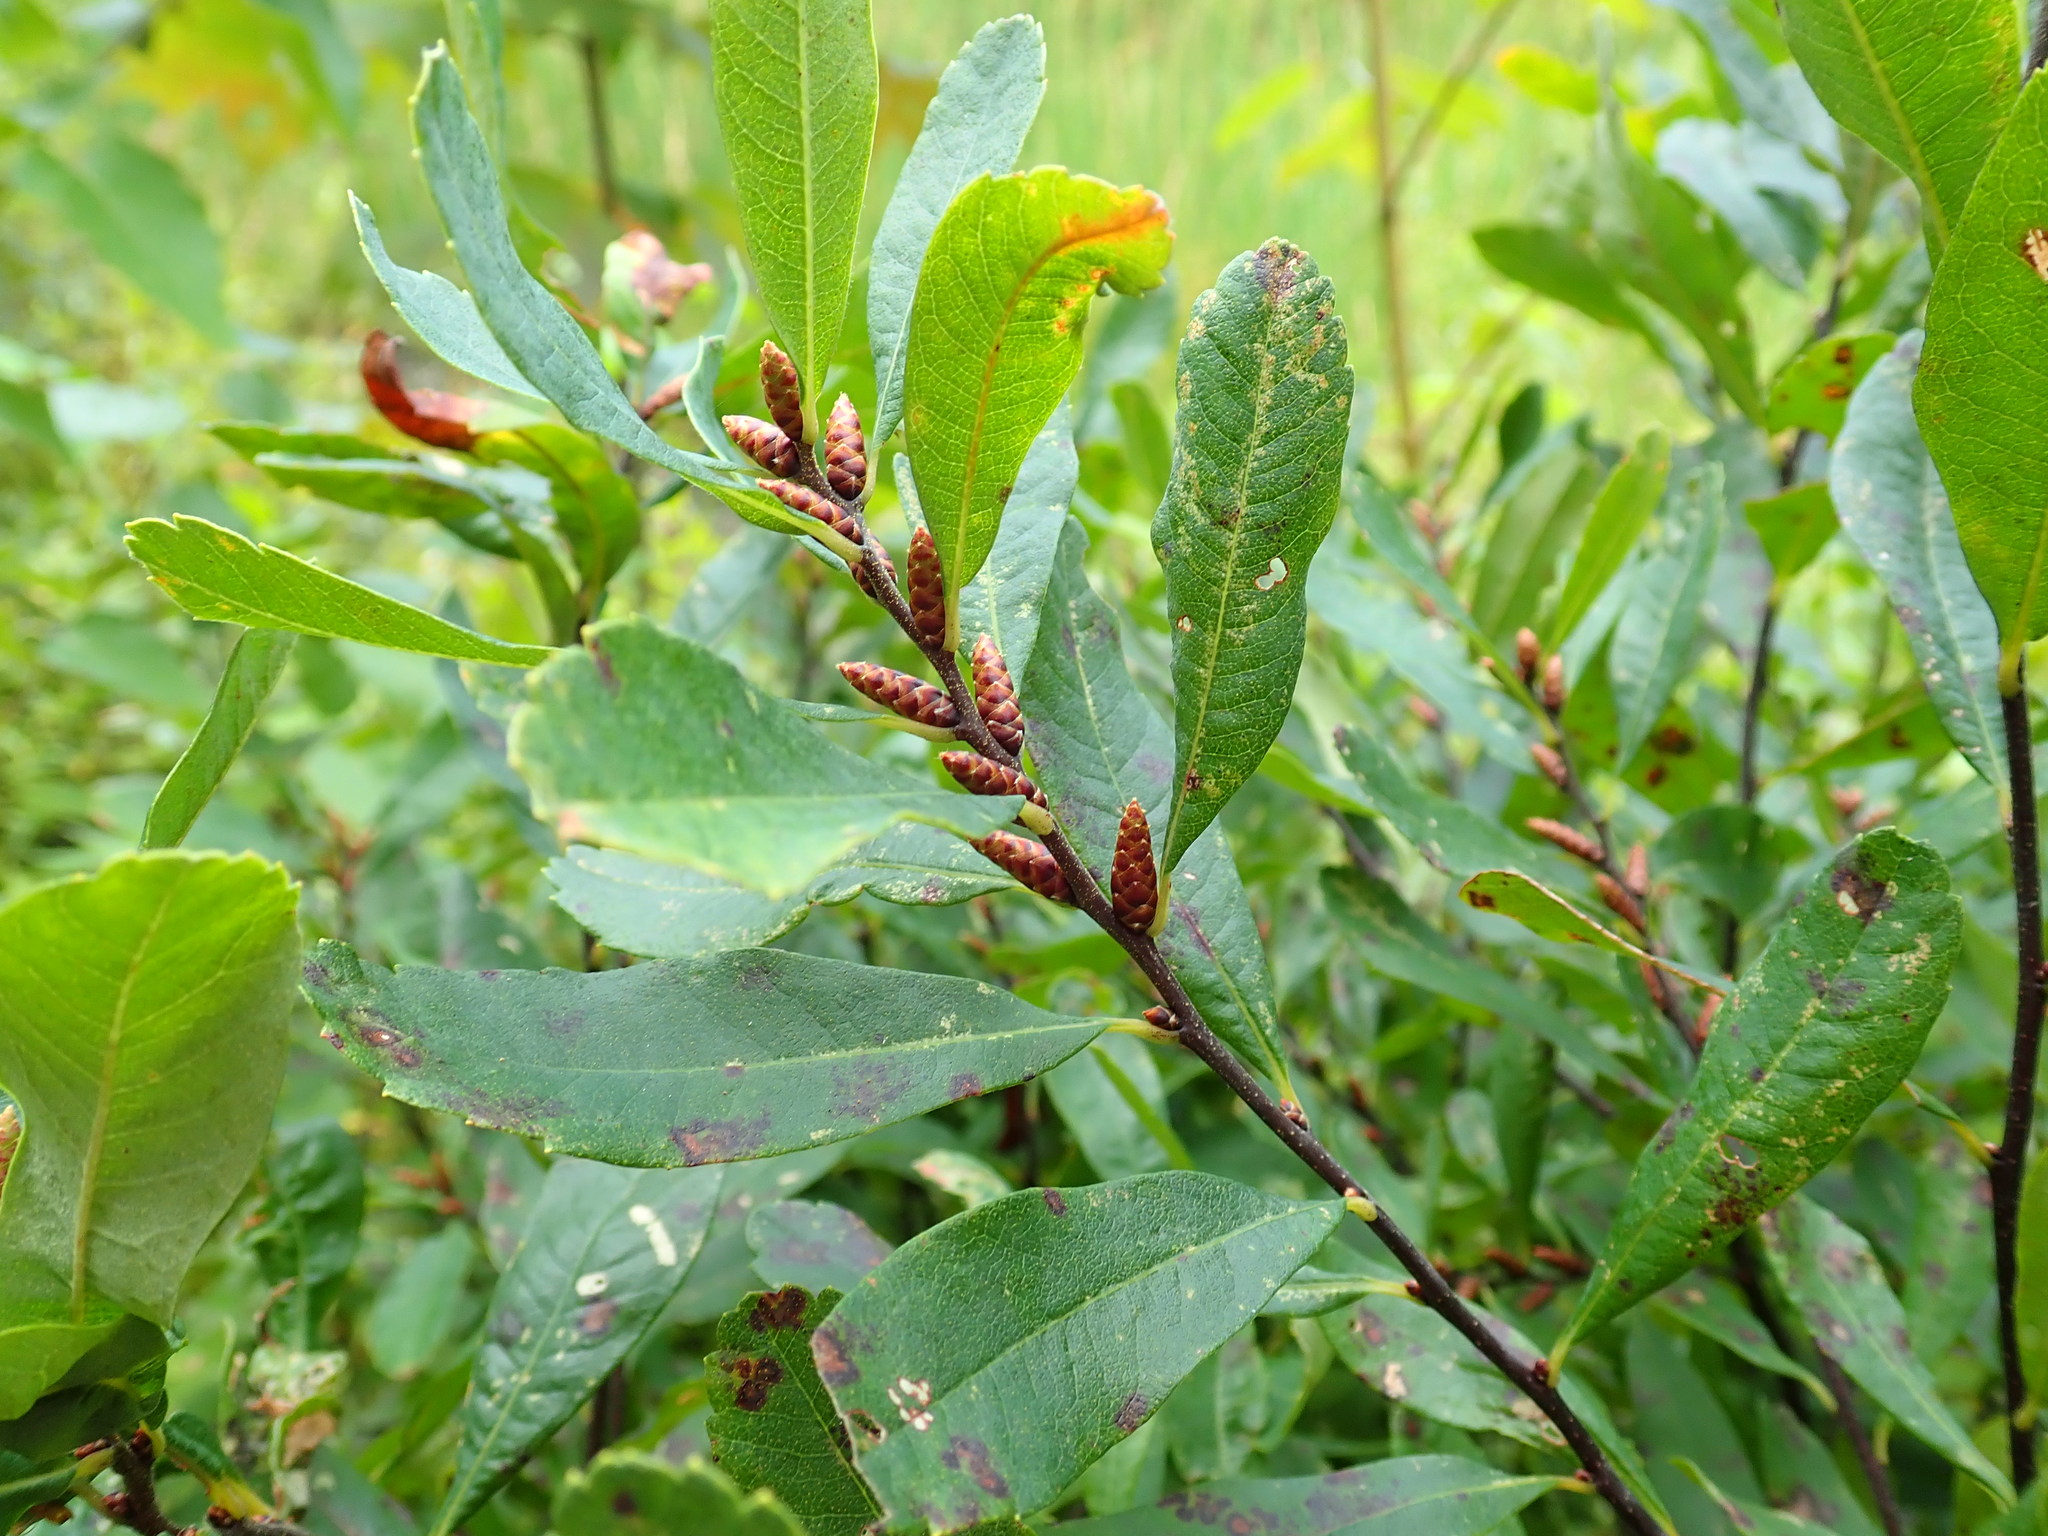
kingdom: Plantae
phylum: Tracheophyta
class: Magnoliopsida
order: Fagales
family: Myricaceae
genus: Myrica
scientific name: Myrica gale
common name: Sweet gale
